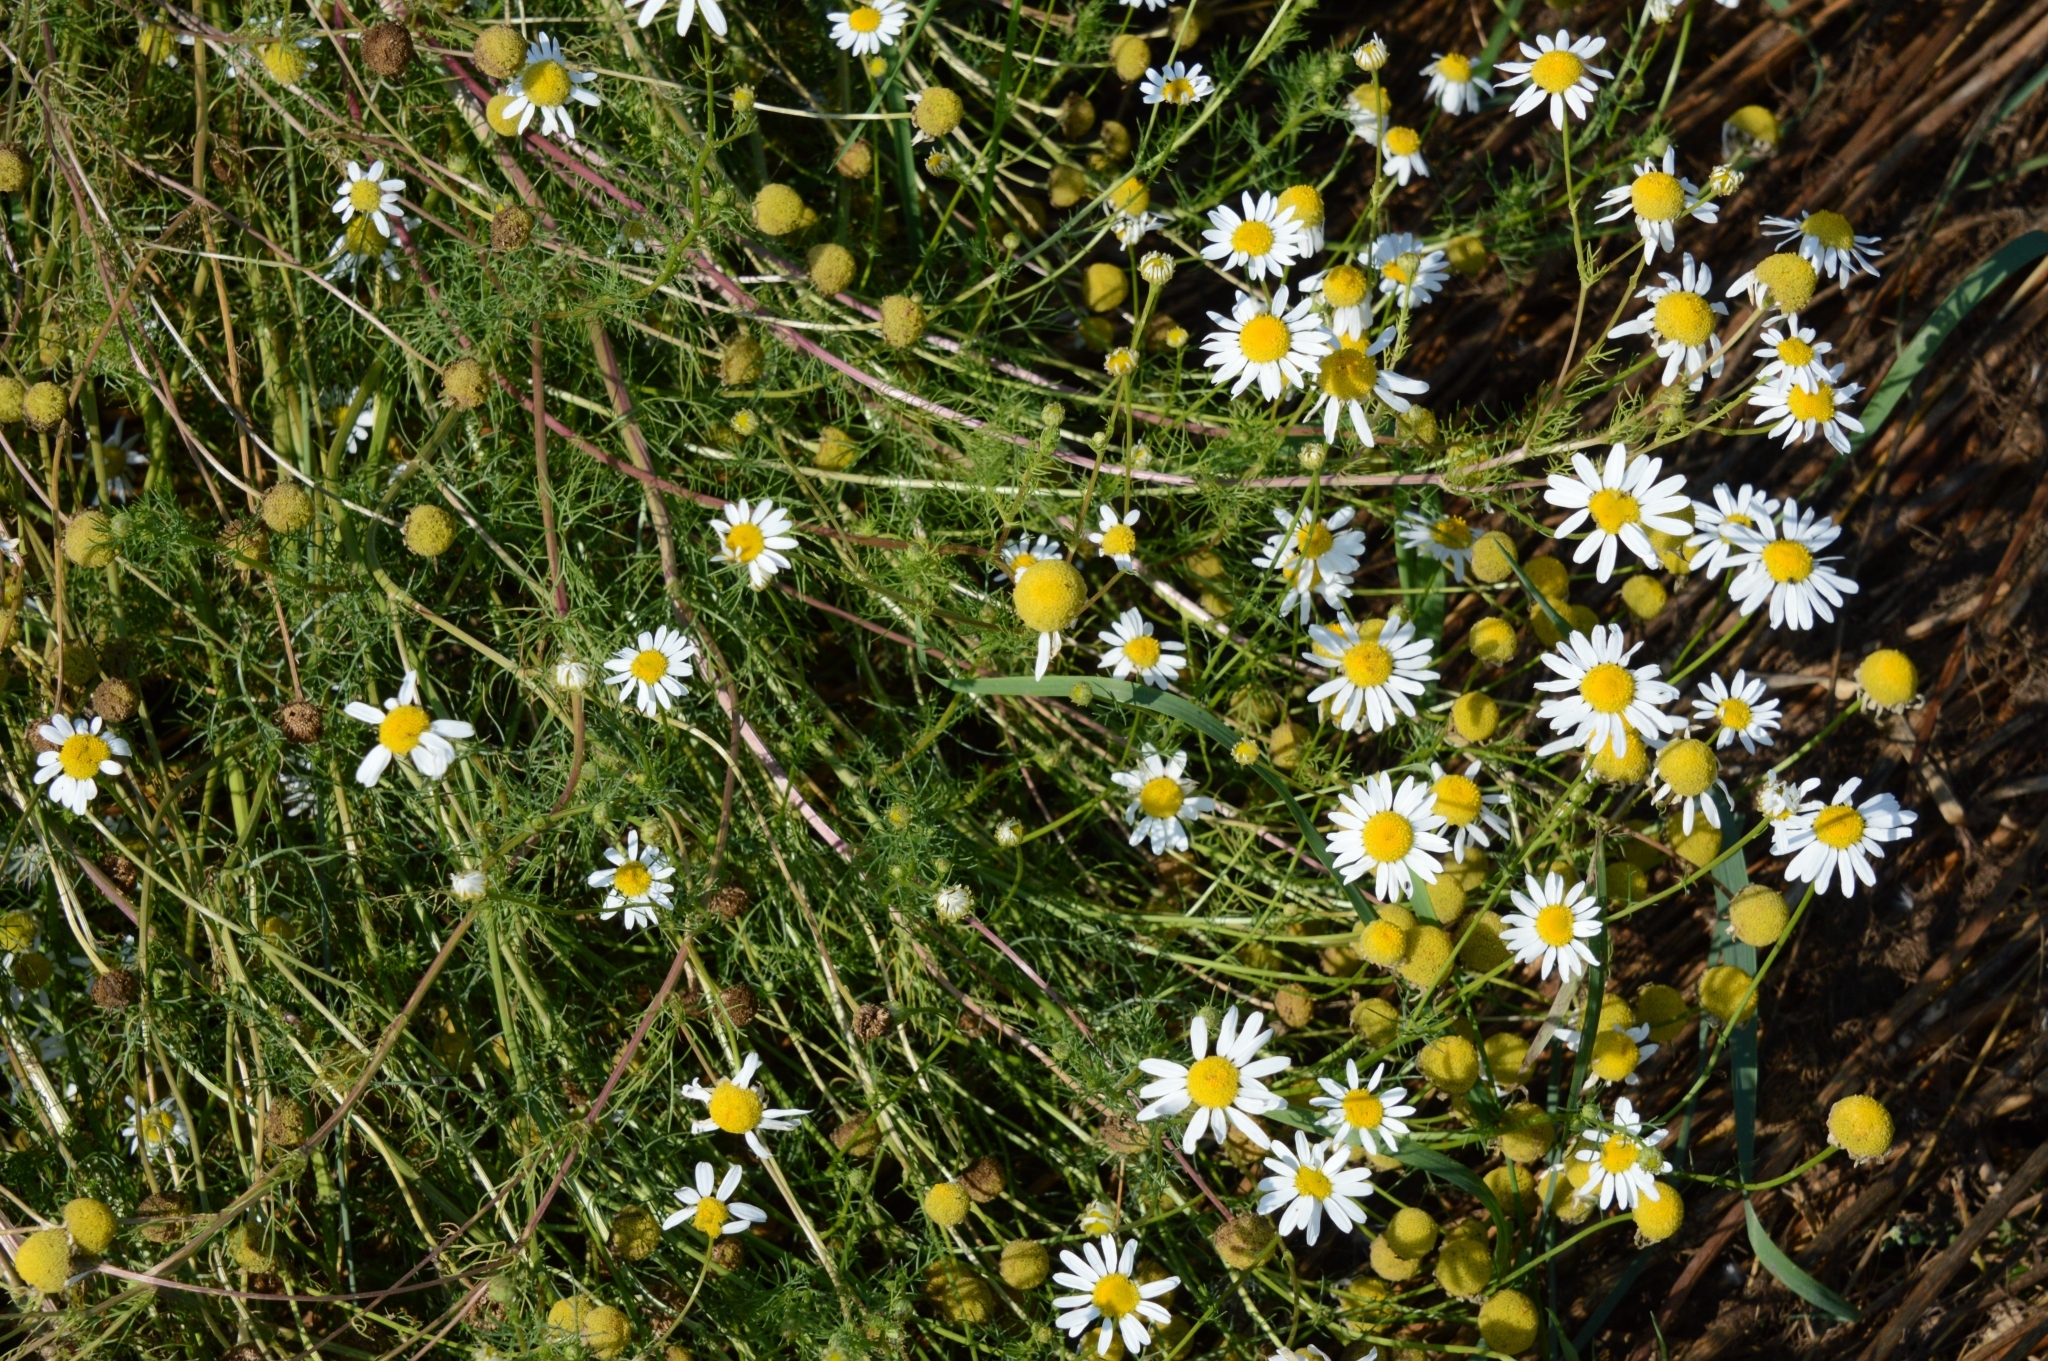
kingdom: Plantae
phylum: Tracheophyta
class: Magnoliopsida
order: Asterales
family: Asteraceae
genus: Tripleurospermum
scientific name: Tripleurospermum inodorum
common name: Scentless mayweed
